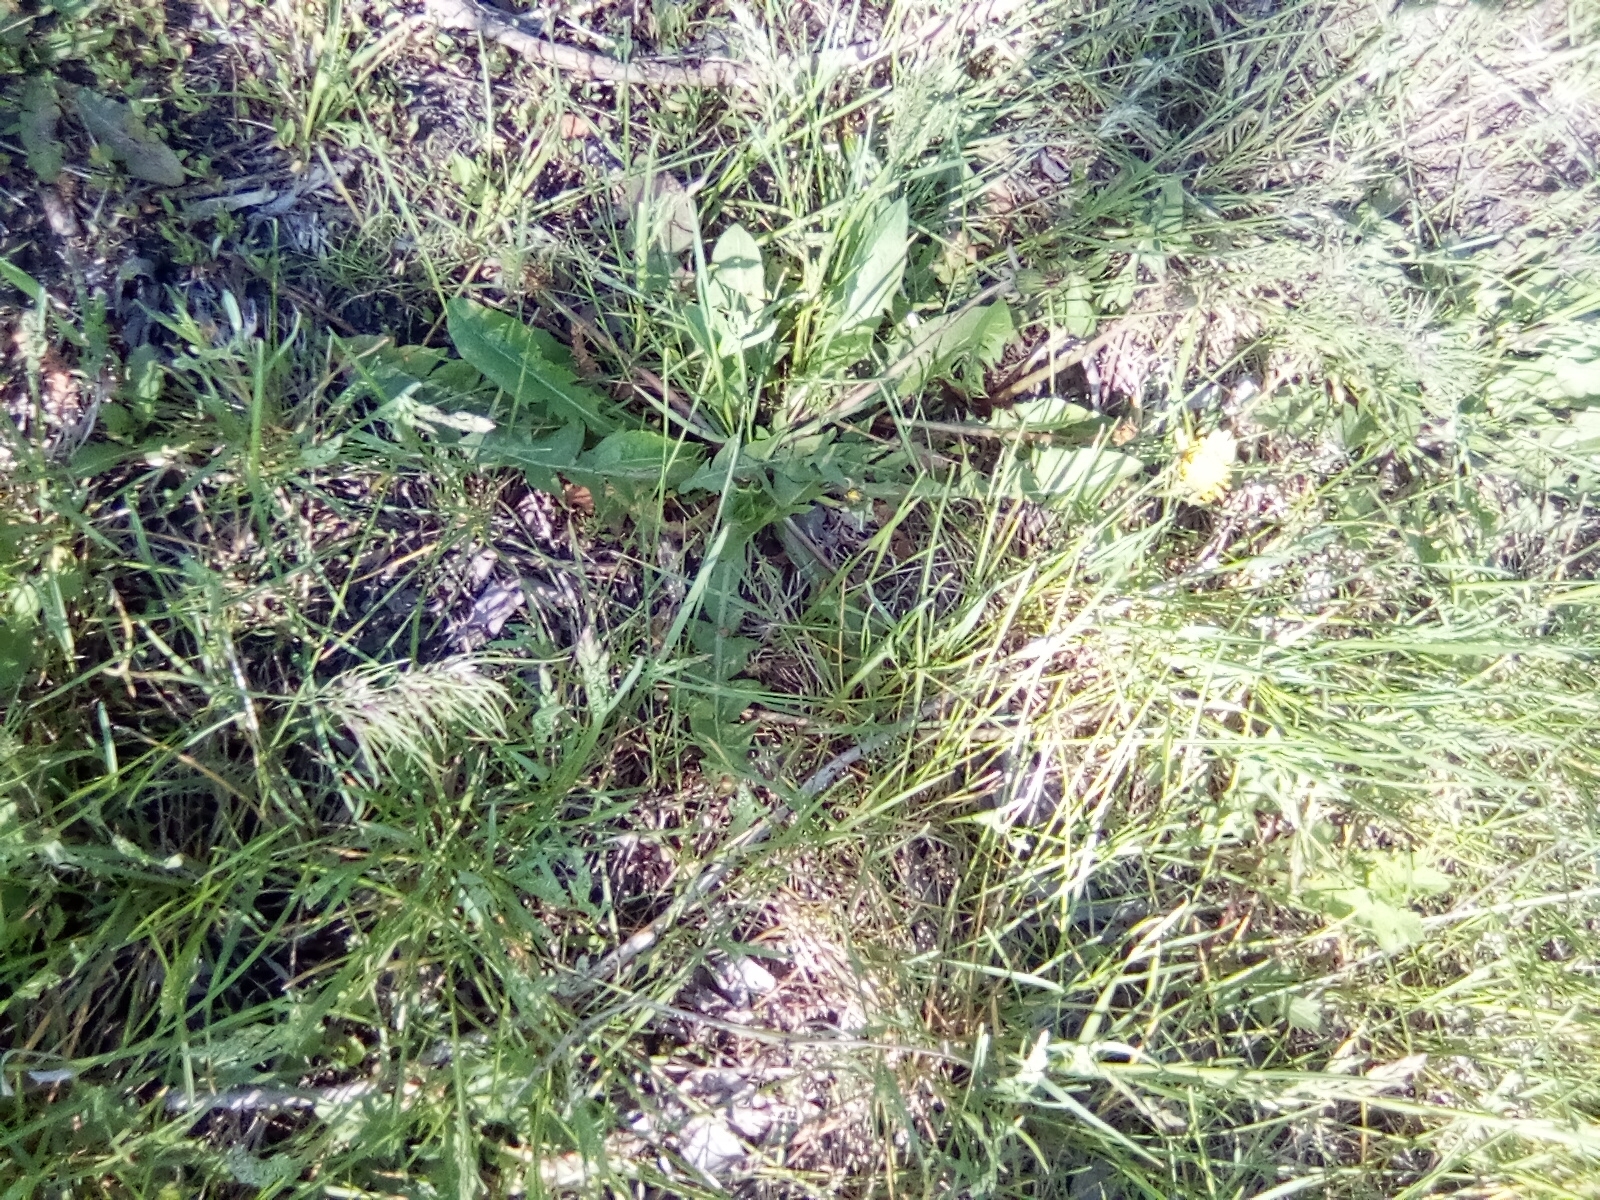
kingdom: Plantae
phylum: Tracheophyta
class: Magnoliopsida
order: Asterales
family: Asteraceae
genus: Taraxacum
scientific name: Taraxacum officinale
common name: Common dandelion
